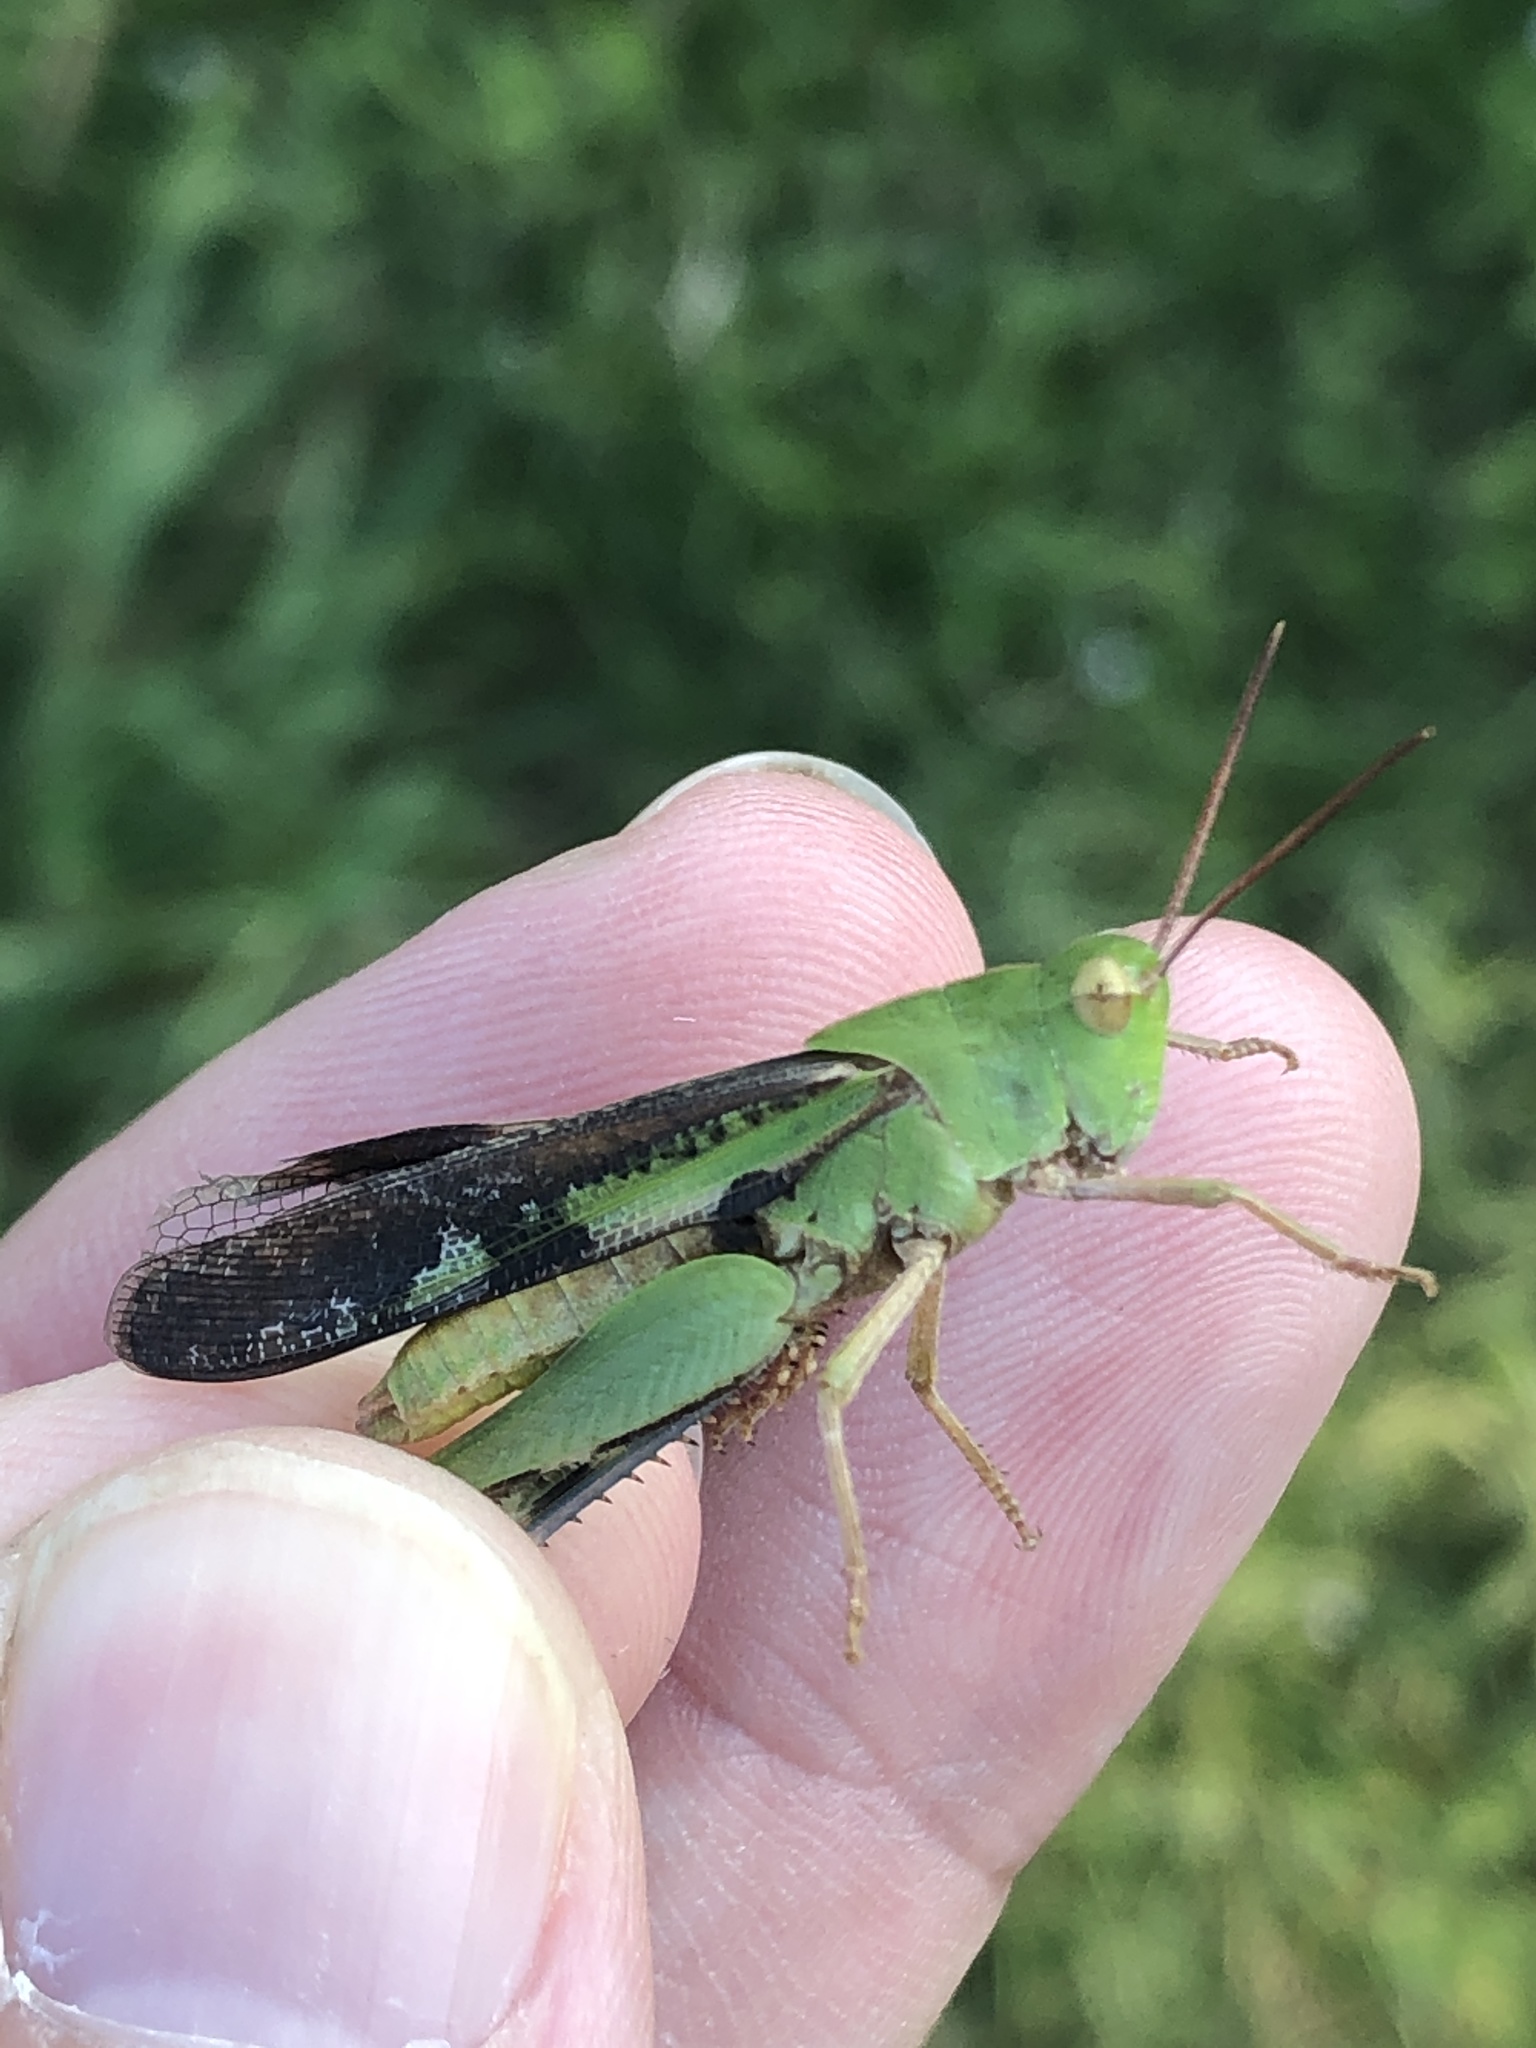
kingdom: Animalia
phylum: Arthropoda
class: Insecta
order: Orthoptera
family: Acrididae
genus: Chortophaga
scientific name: Chortophaga viridifasciata
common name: Green-striped grasshopper
